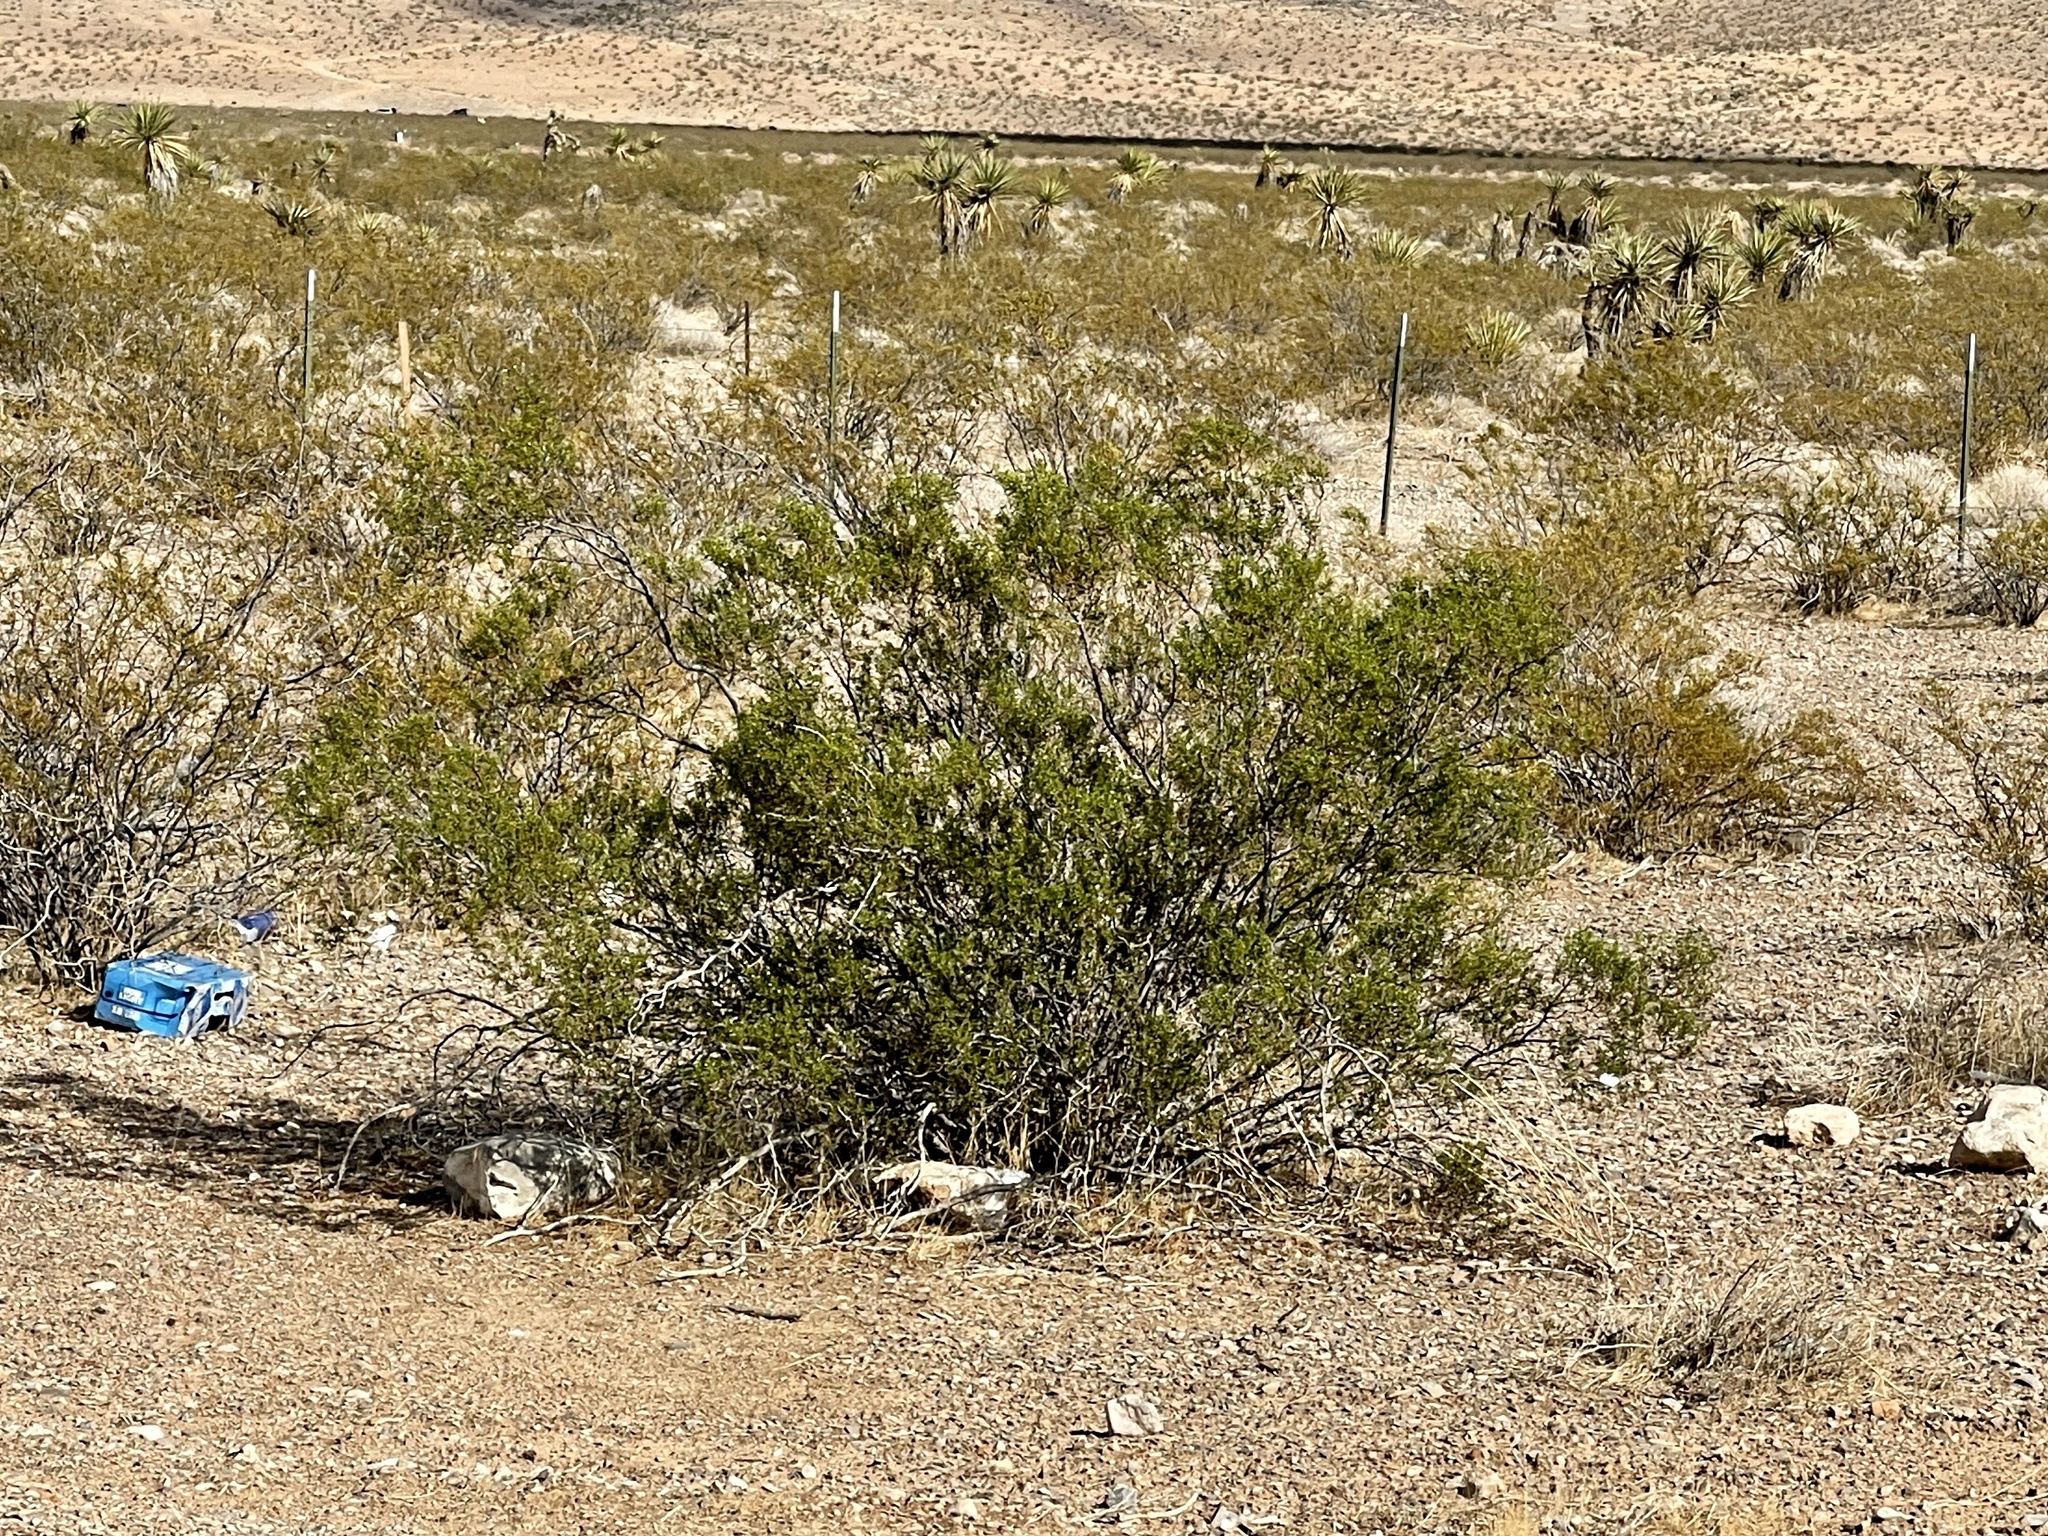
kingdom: Plantae
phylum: Tracheophyta
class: Magnoliopsida
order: Zygophyllales
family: Zygophyllaceae
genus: Larrea
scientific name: Larrea tridentata
